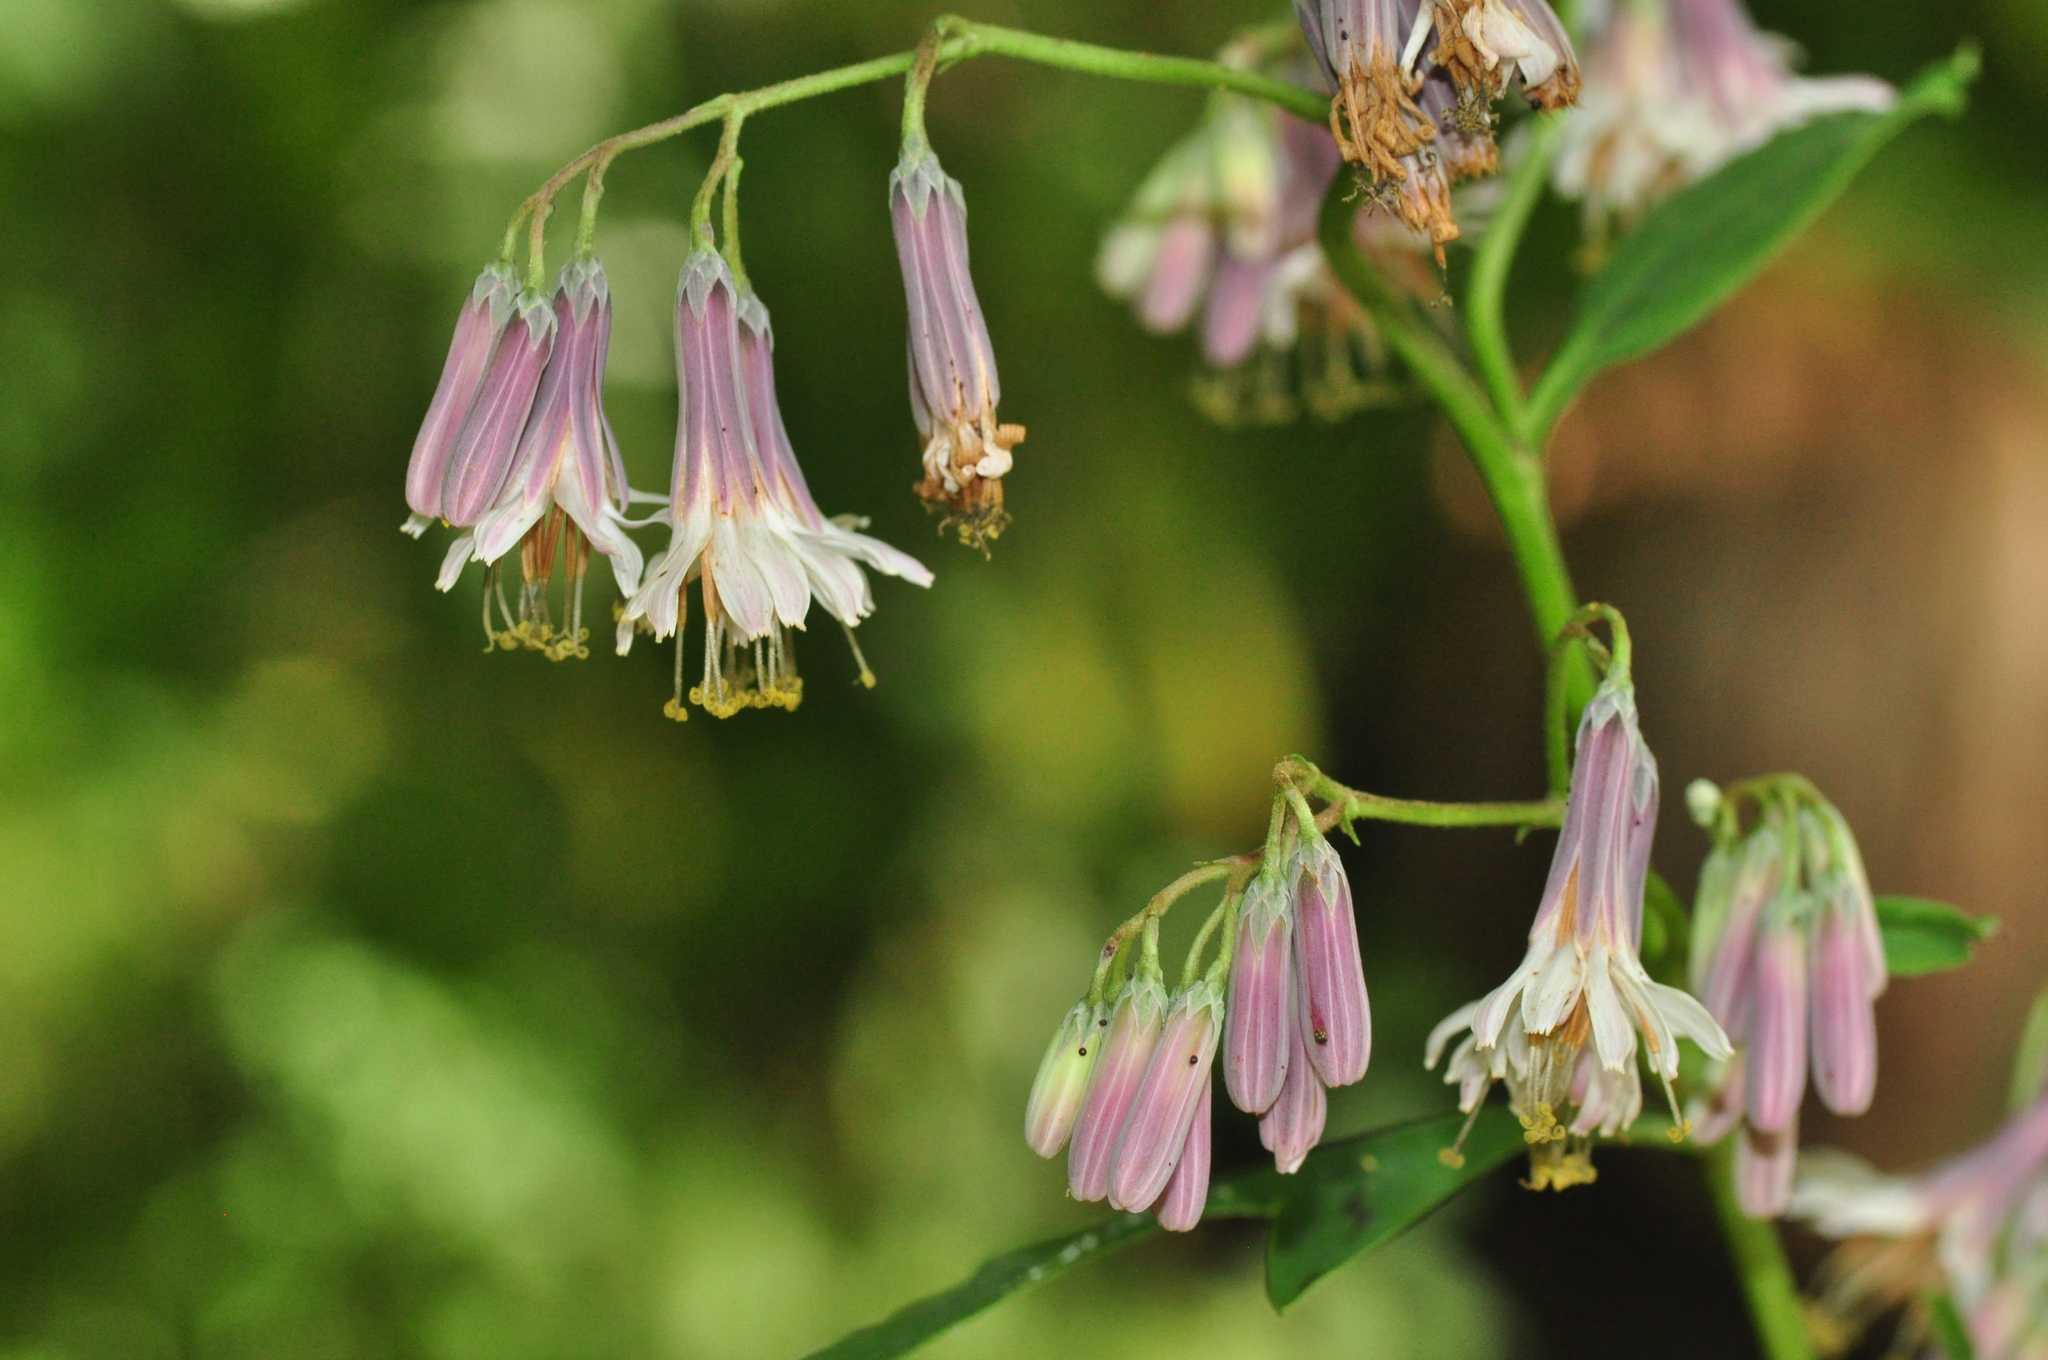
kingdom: Plantae
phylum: Tracheophyta
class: Magnoliopsida
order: Asterales
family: Asteraceae
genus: Nabalus
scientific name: Nabalus albus
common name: White rattlesnakeroot
